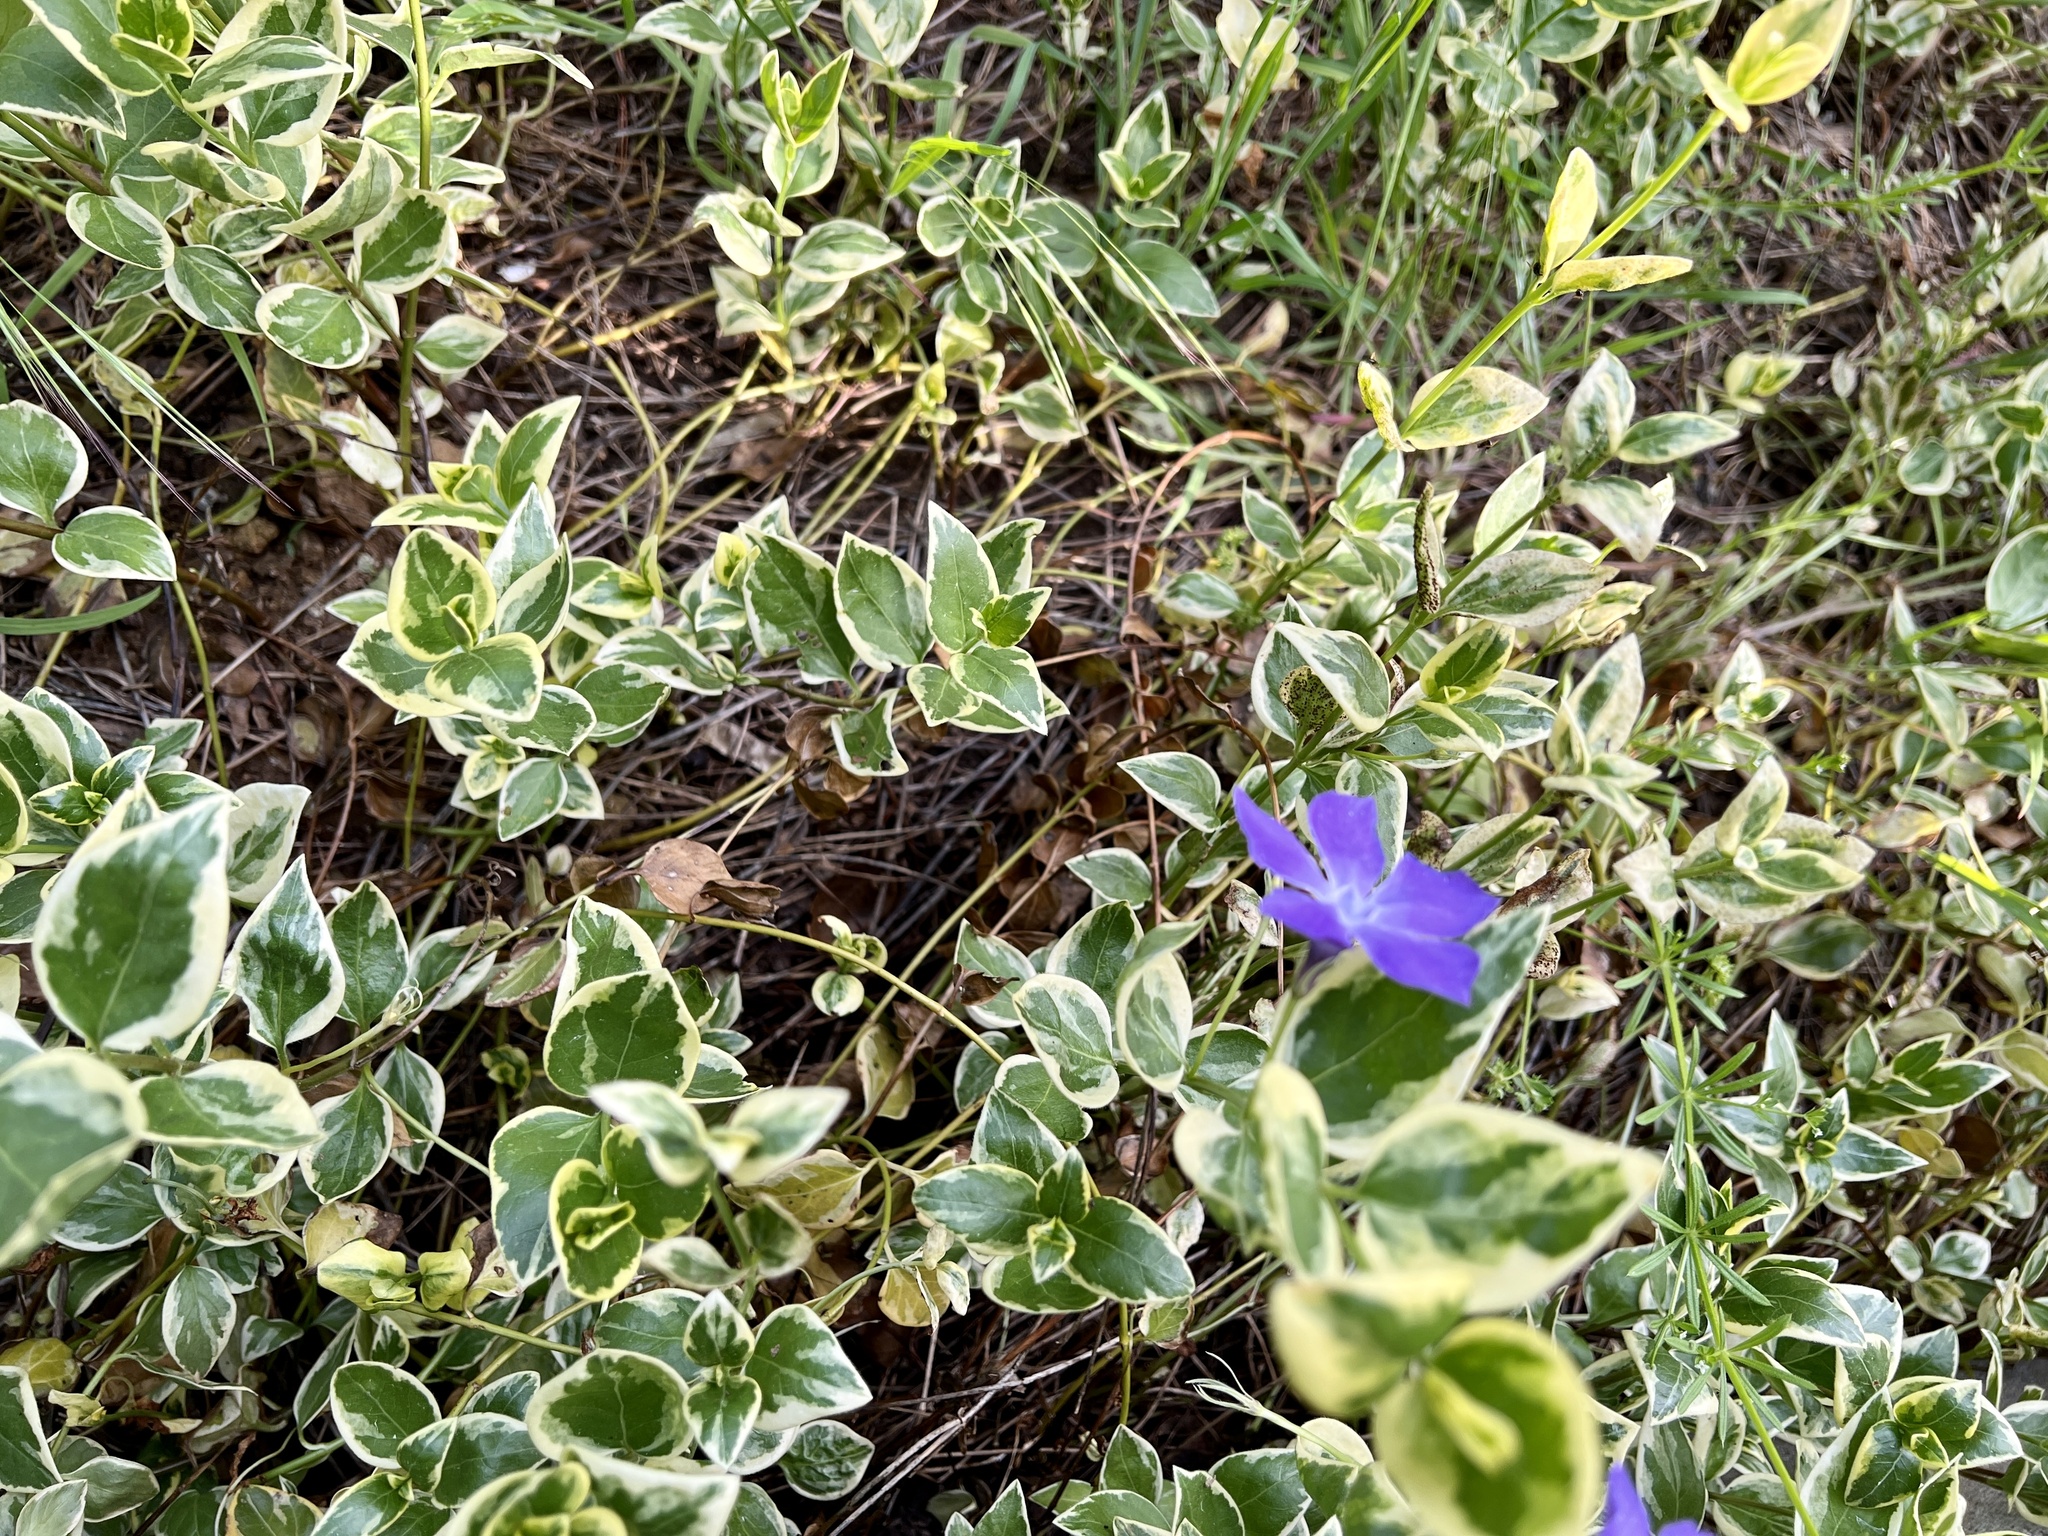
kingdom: Plantae
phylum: Tracheophyta
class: Magnoliopsida
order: Gentianales
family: Apocynaceae
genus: Vinca
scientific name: Vinca major
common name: Greater periwinkle
